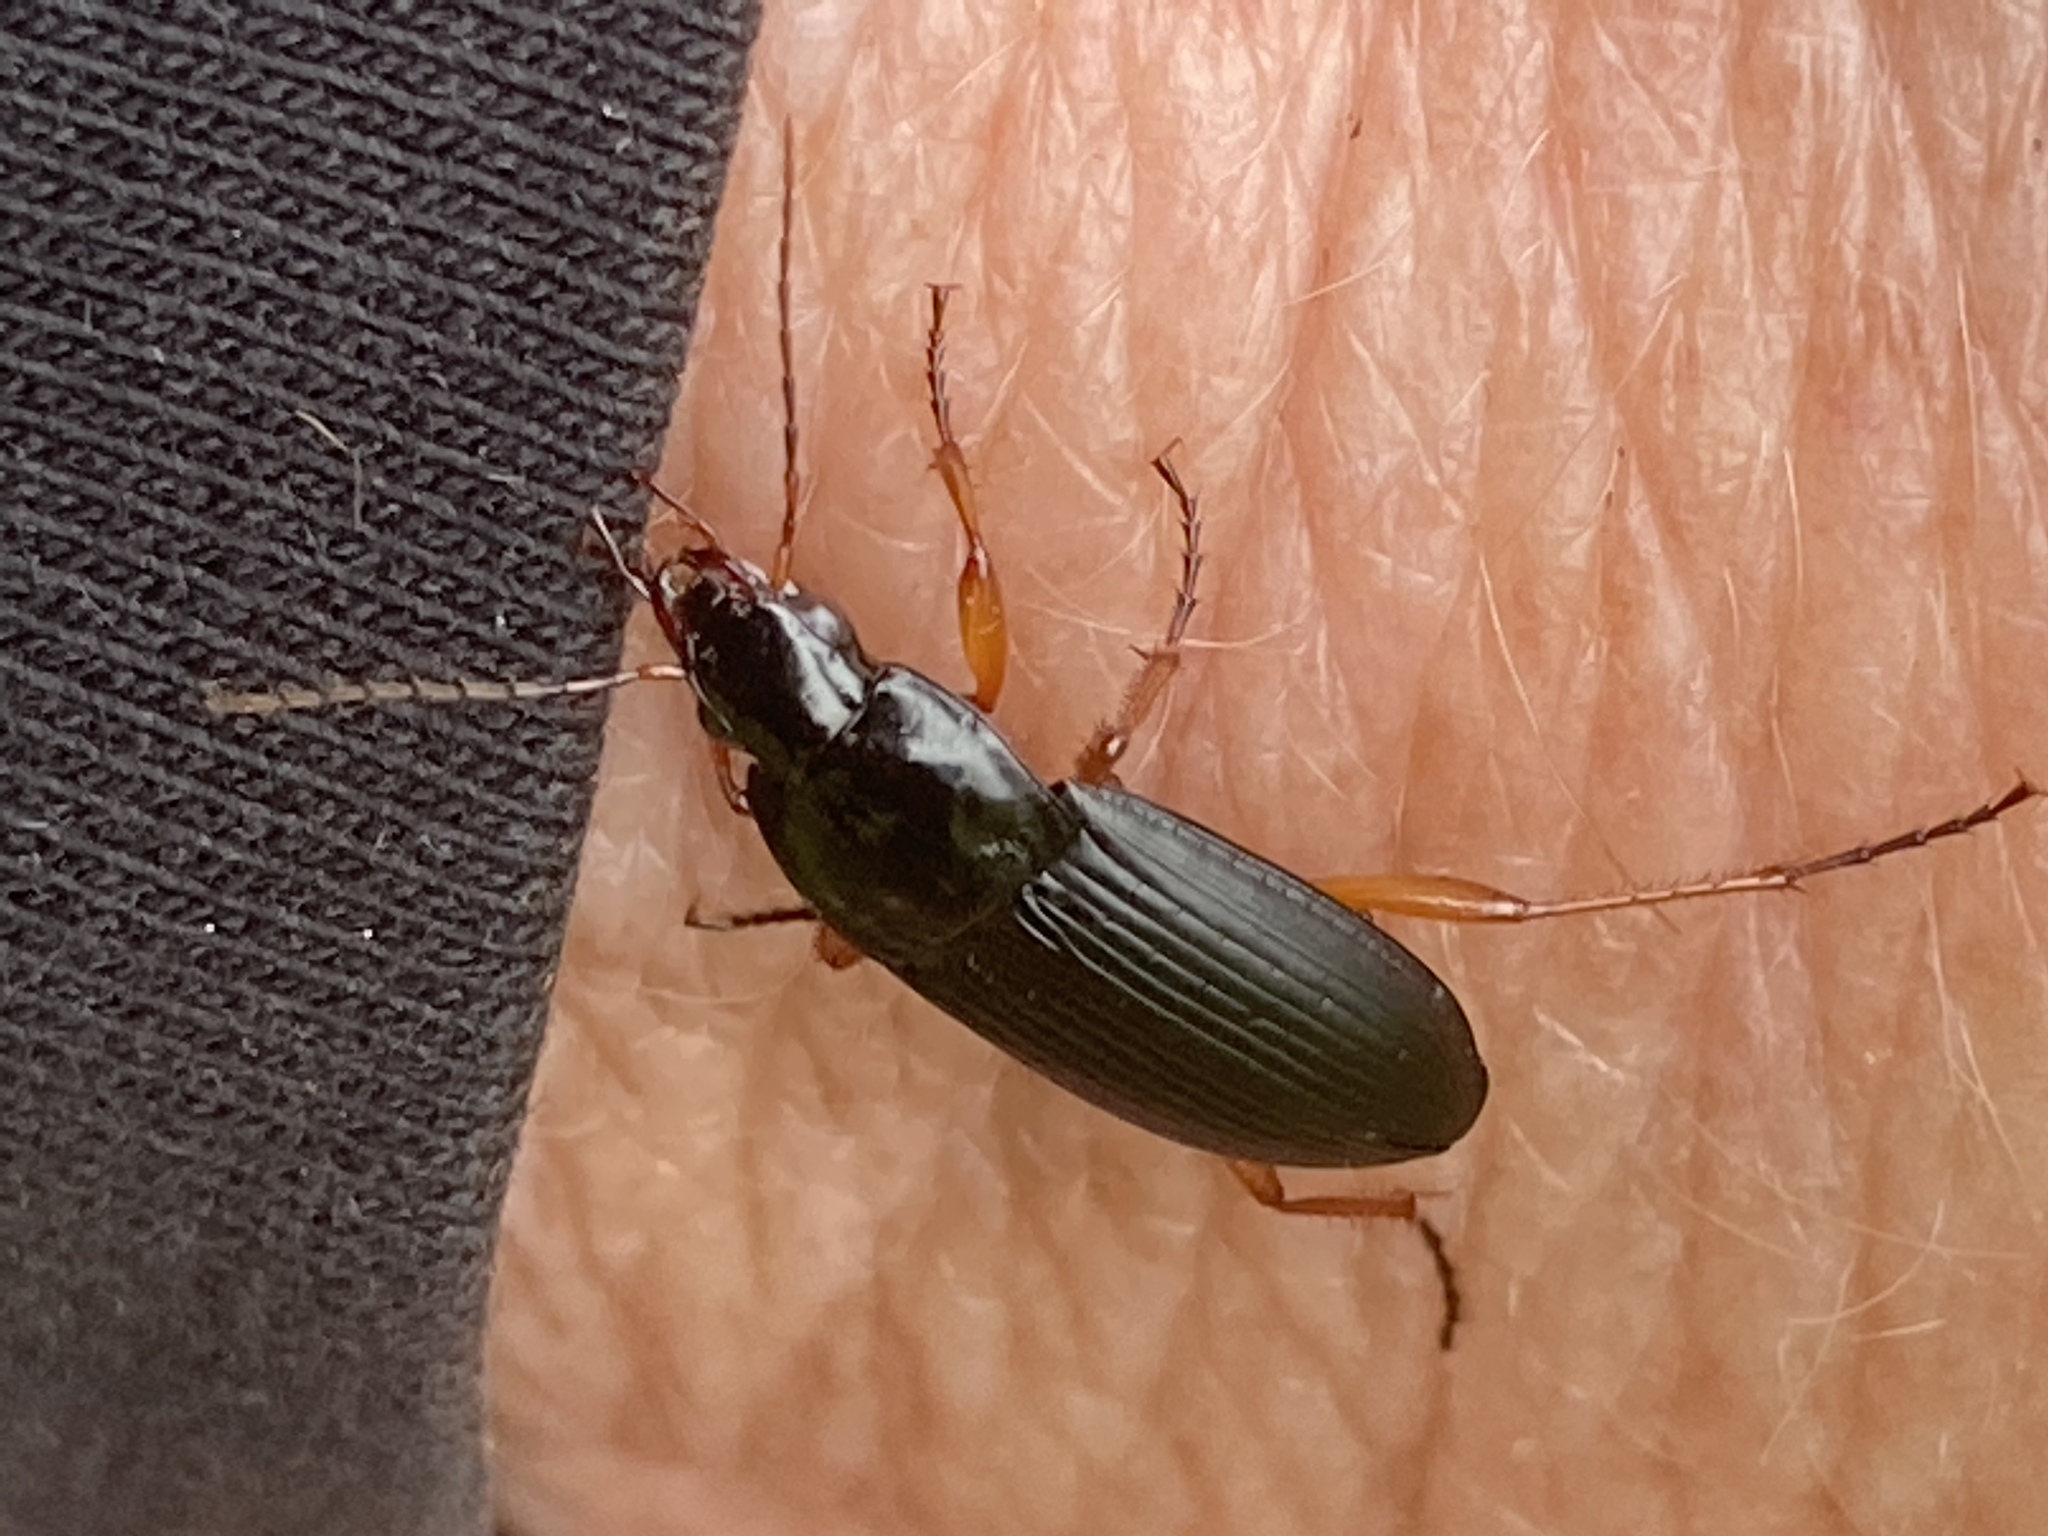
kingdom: Animalia
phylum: Arthropoda
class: Insecta
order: Coleoptera
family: Carabidae
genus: Calathus
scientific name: Calathus fuscipes
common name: Dark-footed harp ground beetle
